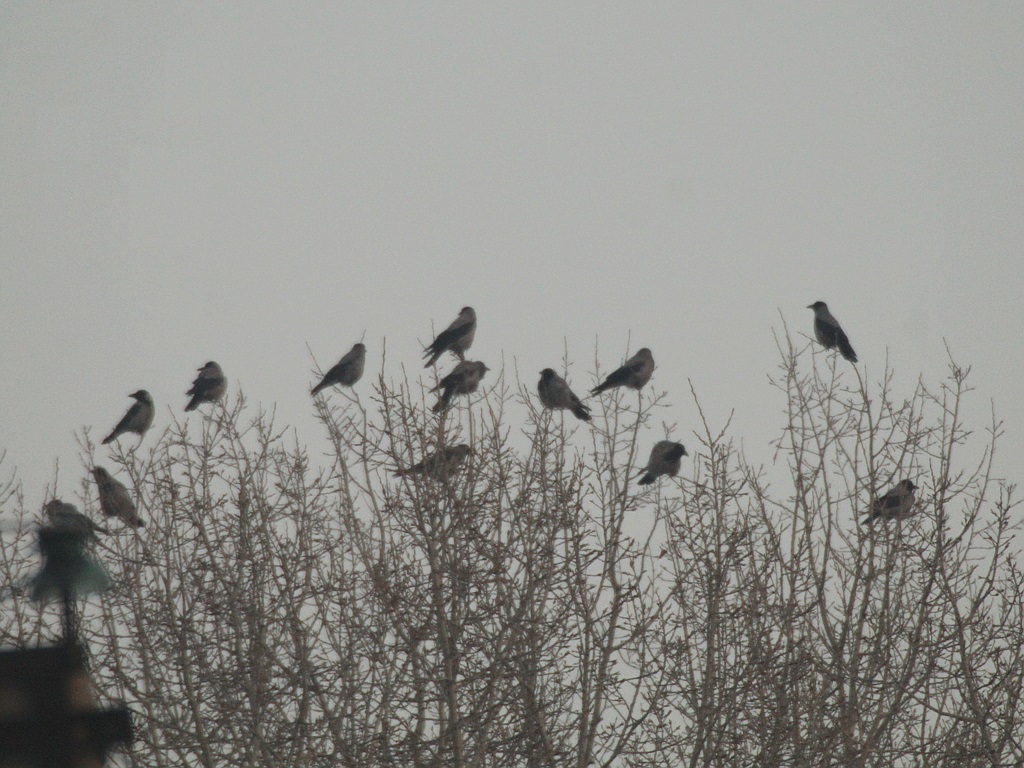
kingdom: Animalia
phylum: Chordata
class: Aves
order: Passeriformes
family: Corvidae
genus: Corvus
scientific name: Corvus cornix
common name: Hooded crow
